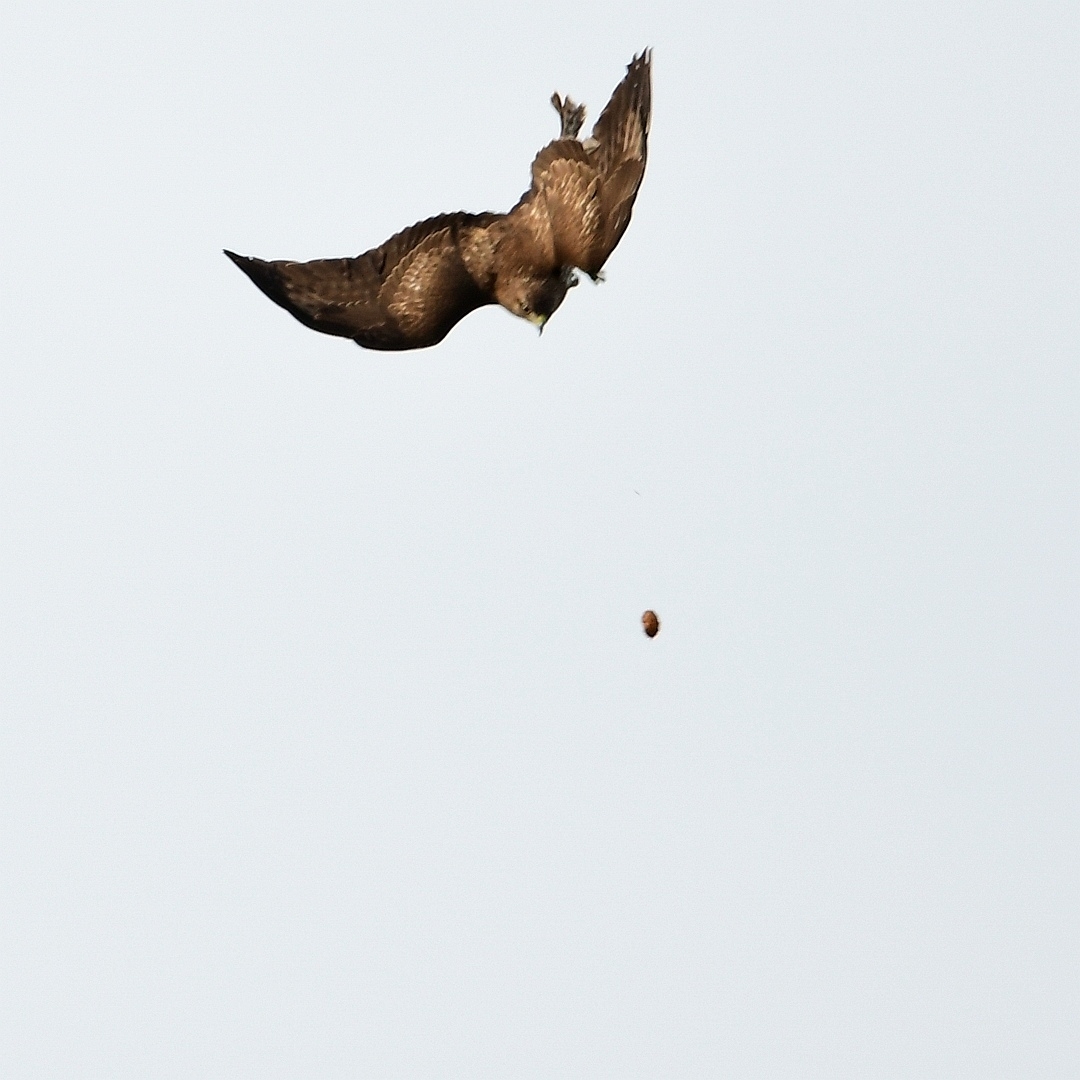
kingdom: Animalia
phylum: Chordata
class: Aves
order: Accipitriformes
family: Accipitridae
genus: Buteo
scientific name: Buteo buteo
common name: Common buzzard
